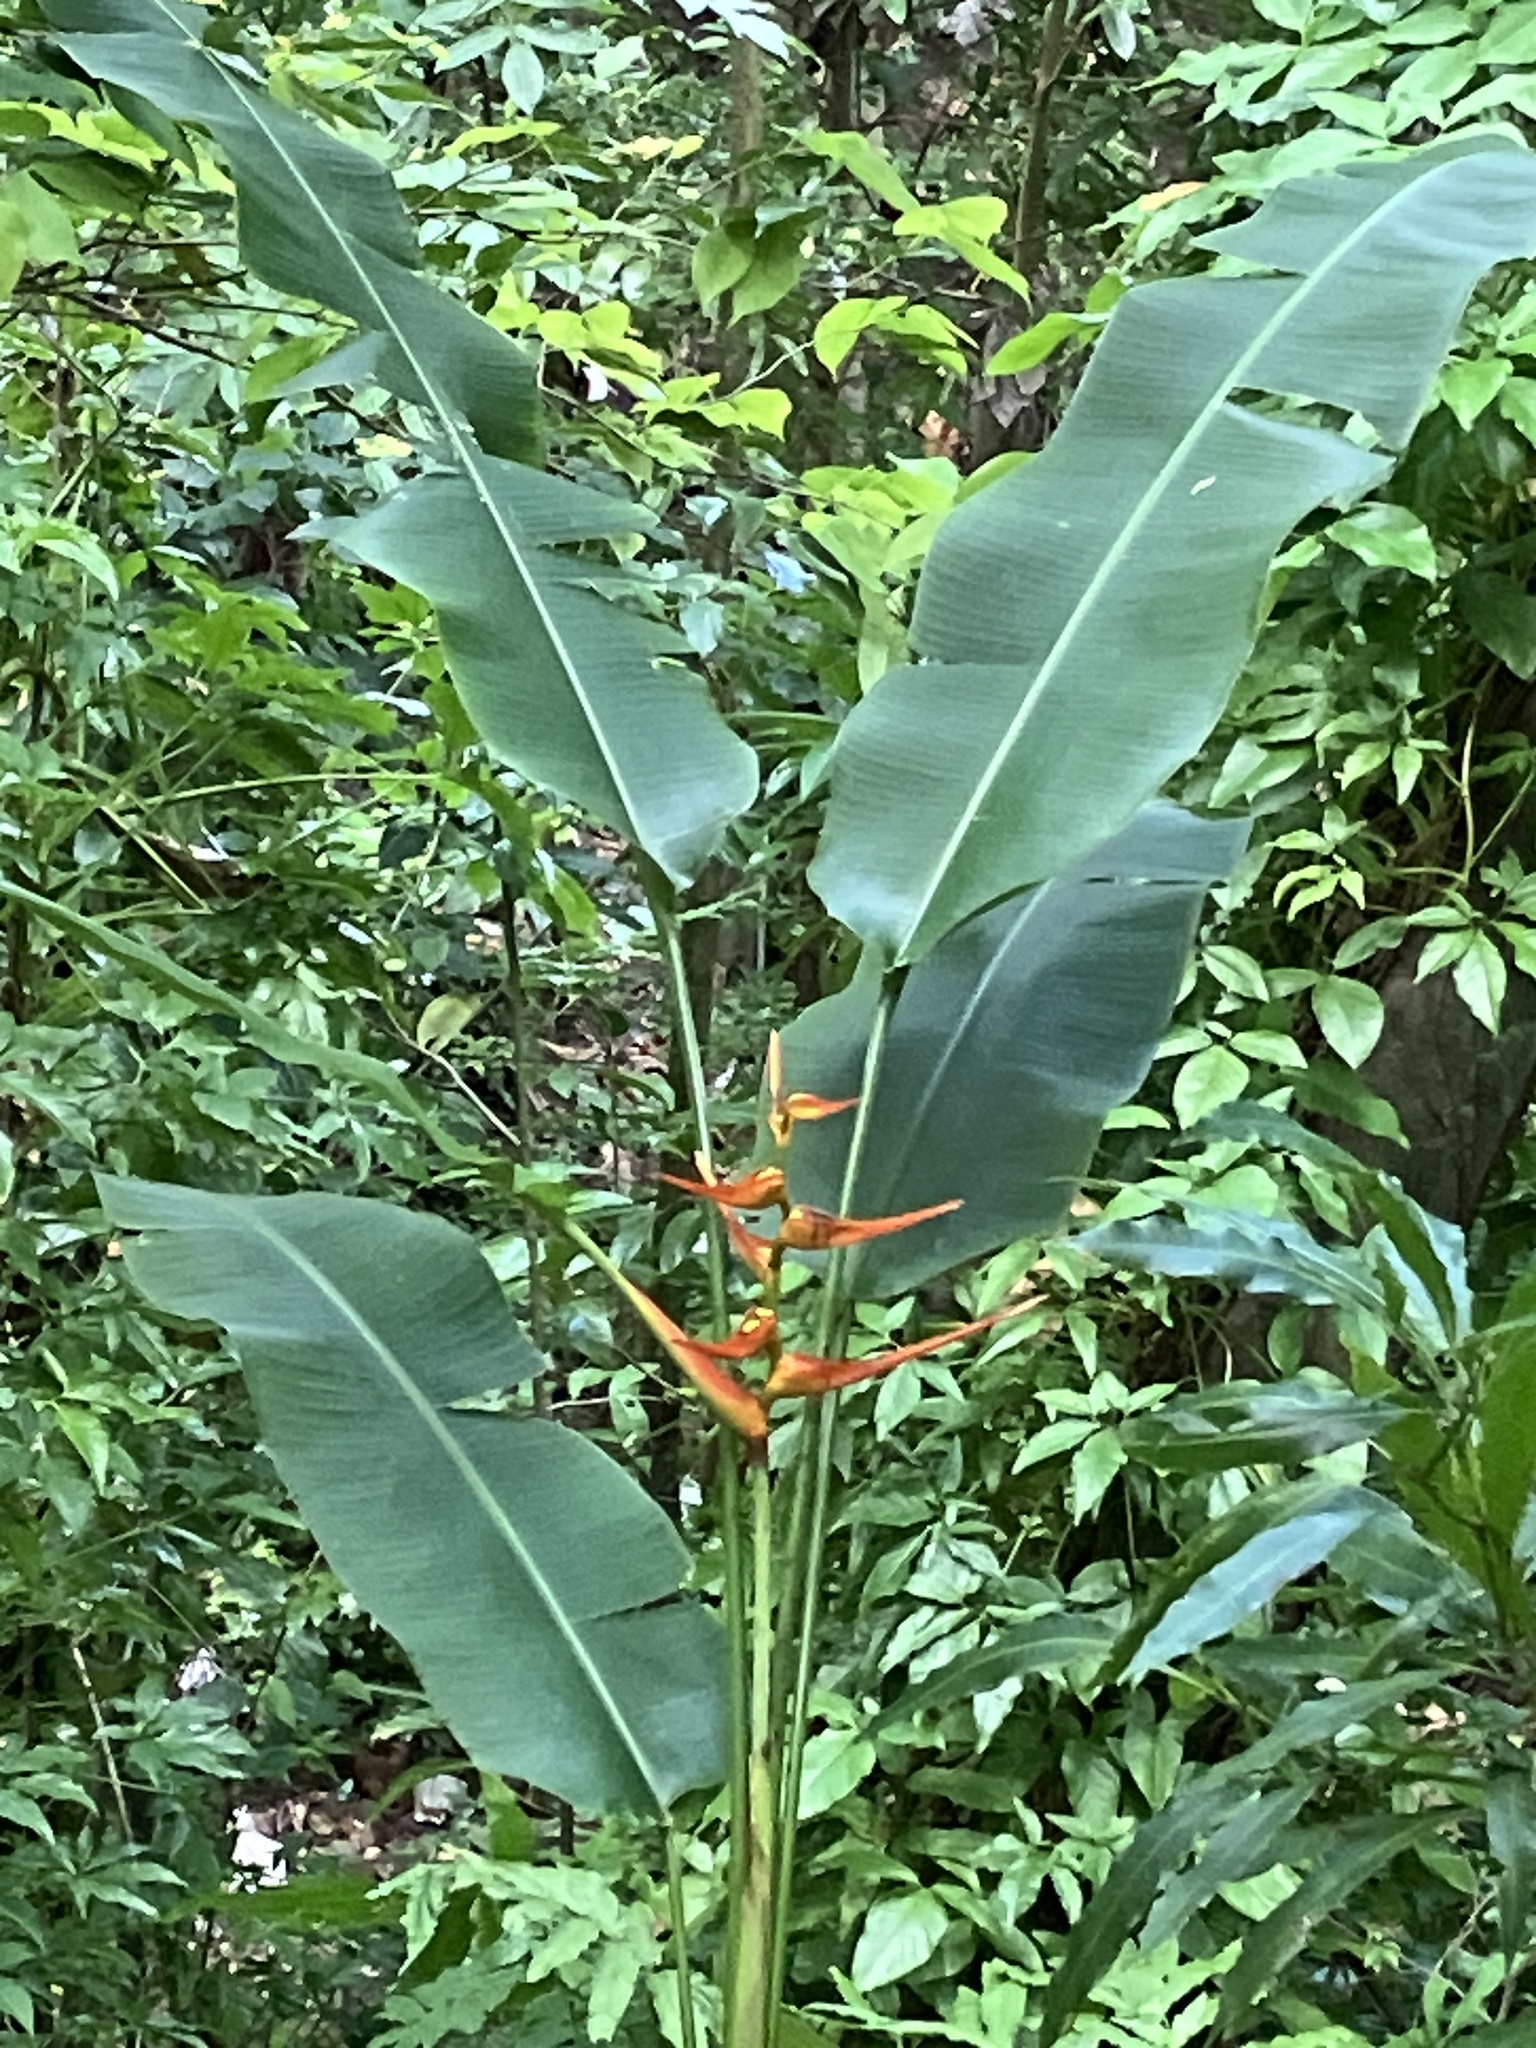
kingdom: Plantae
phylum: Tracheophyta
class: Liliopsida
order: Zingiberales
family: Heliconiaceae
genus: Heliconia
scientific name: Heliconia latispatha
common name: Expanded lobsterclaw
